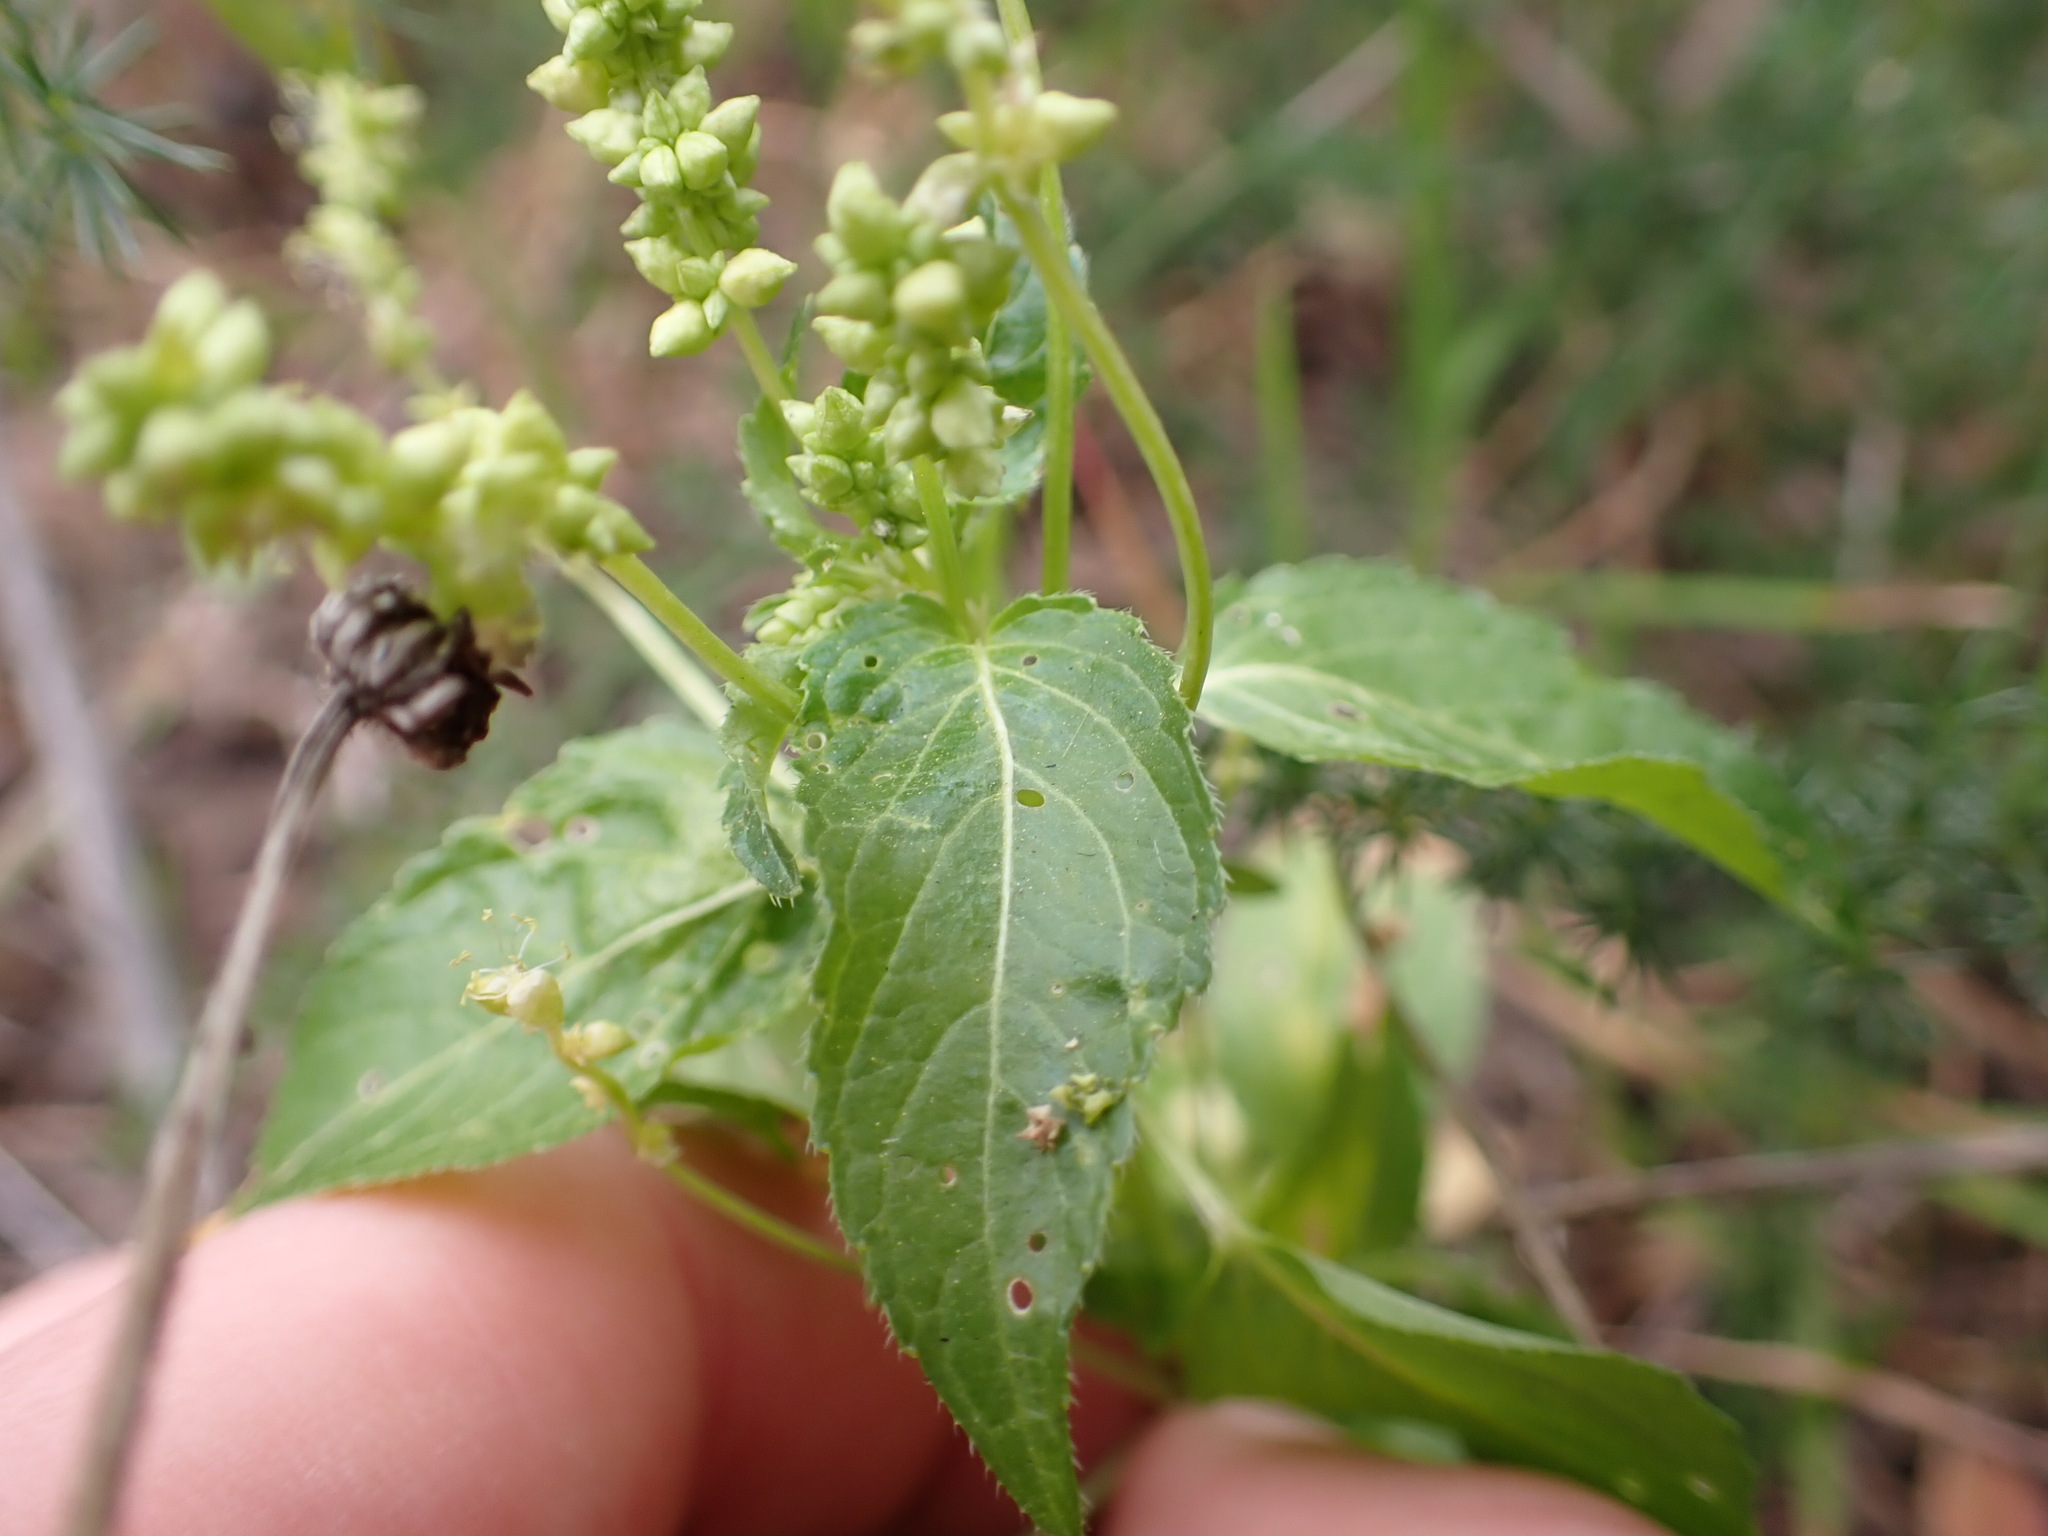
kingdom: Plantae
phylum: Tracheophyta
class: Magnoliopsida
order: Malpighiales
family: Euphorbiaceae
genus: Mercurialis
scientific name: Mercurialis annua
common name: Annual mercury
